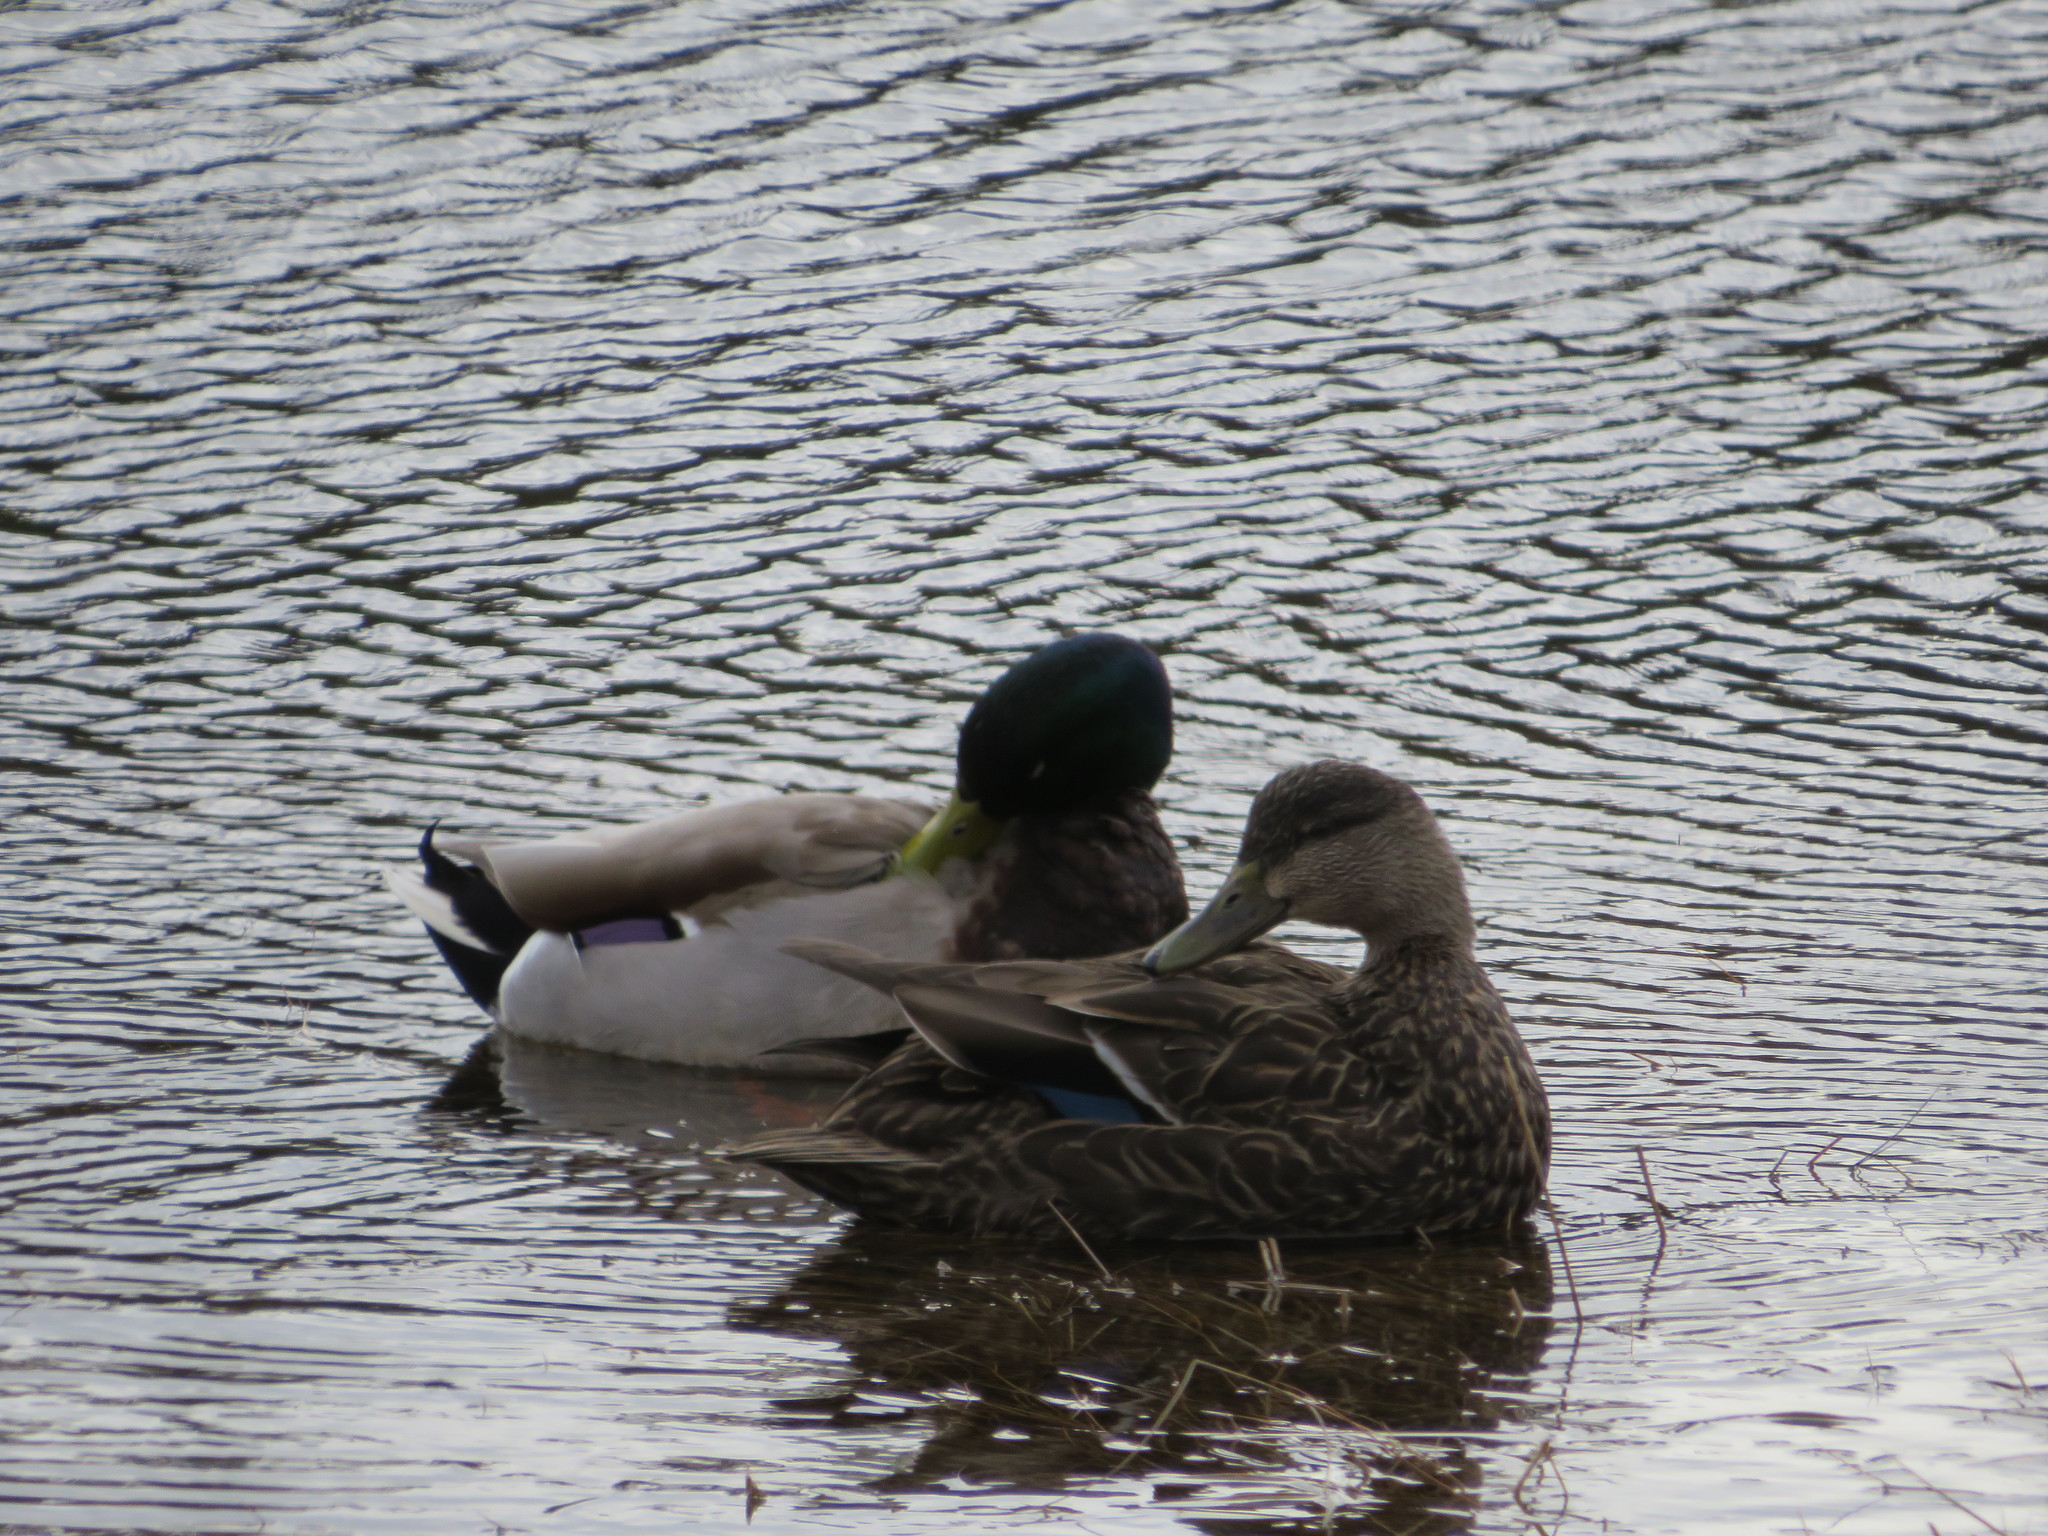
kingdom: Animalia
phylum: Chordata
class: Aves
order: Anseriformes
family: Anatidae
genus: Anas
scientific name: Anas platyrhynchos
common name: Mallard
